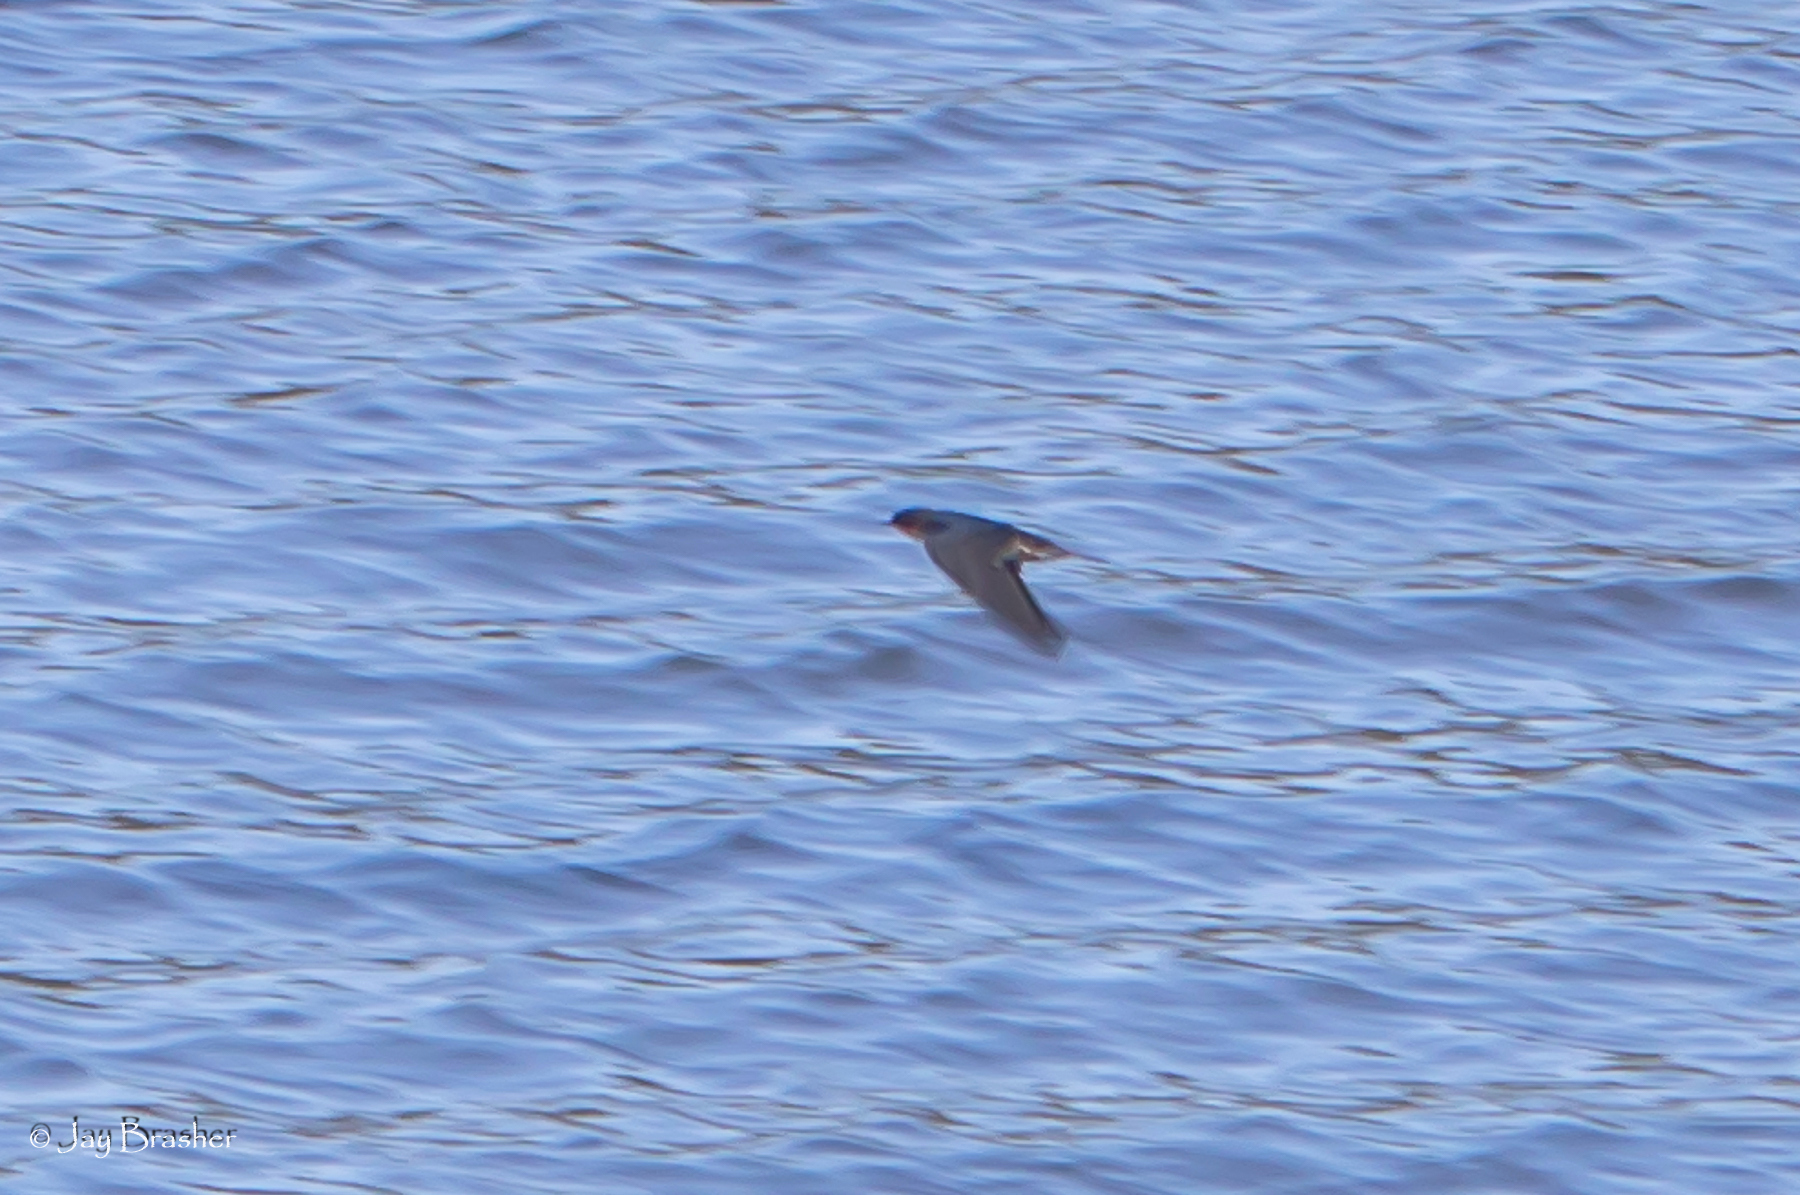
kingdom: Animalia
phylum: Chordata
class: Aves
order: Passeriformes
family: Hirundinidae
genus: Hirundo
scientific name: Hirundo rustica
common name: Barn swallow
